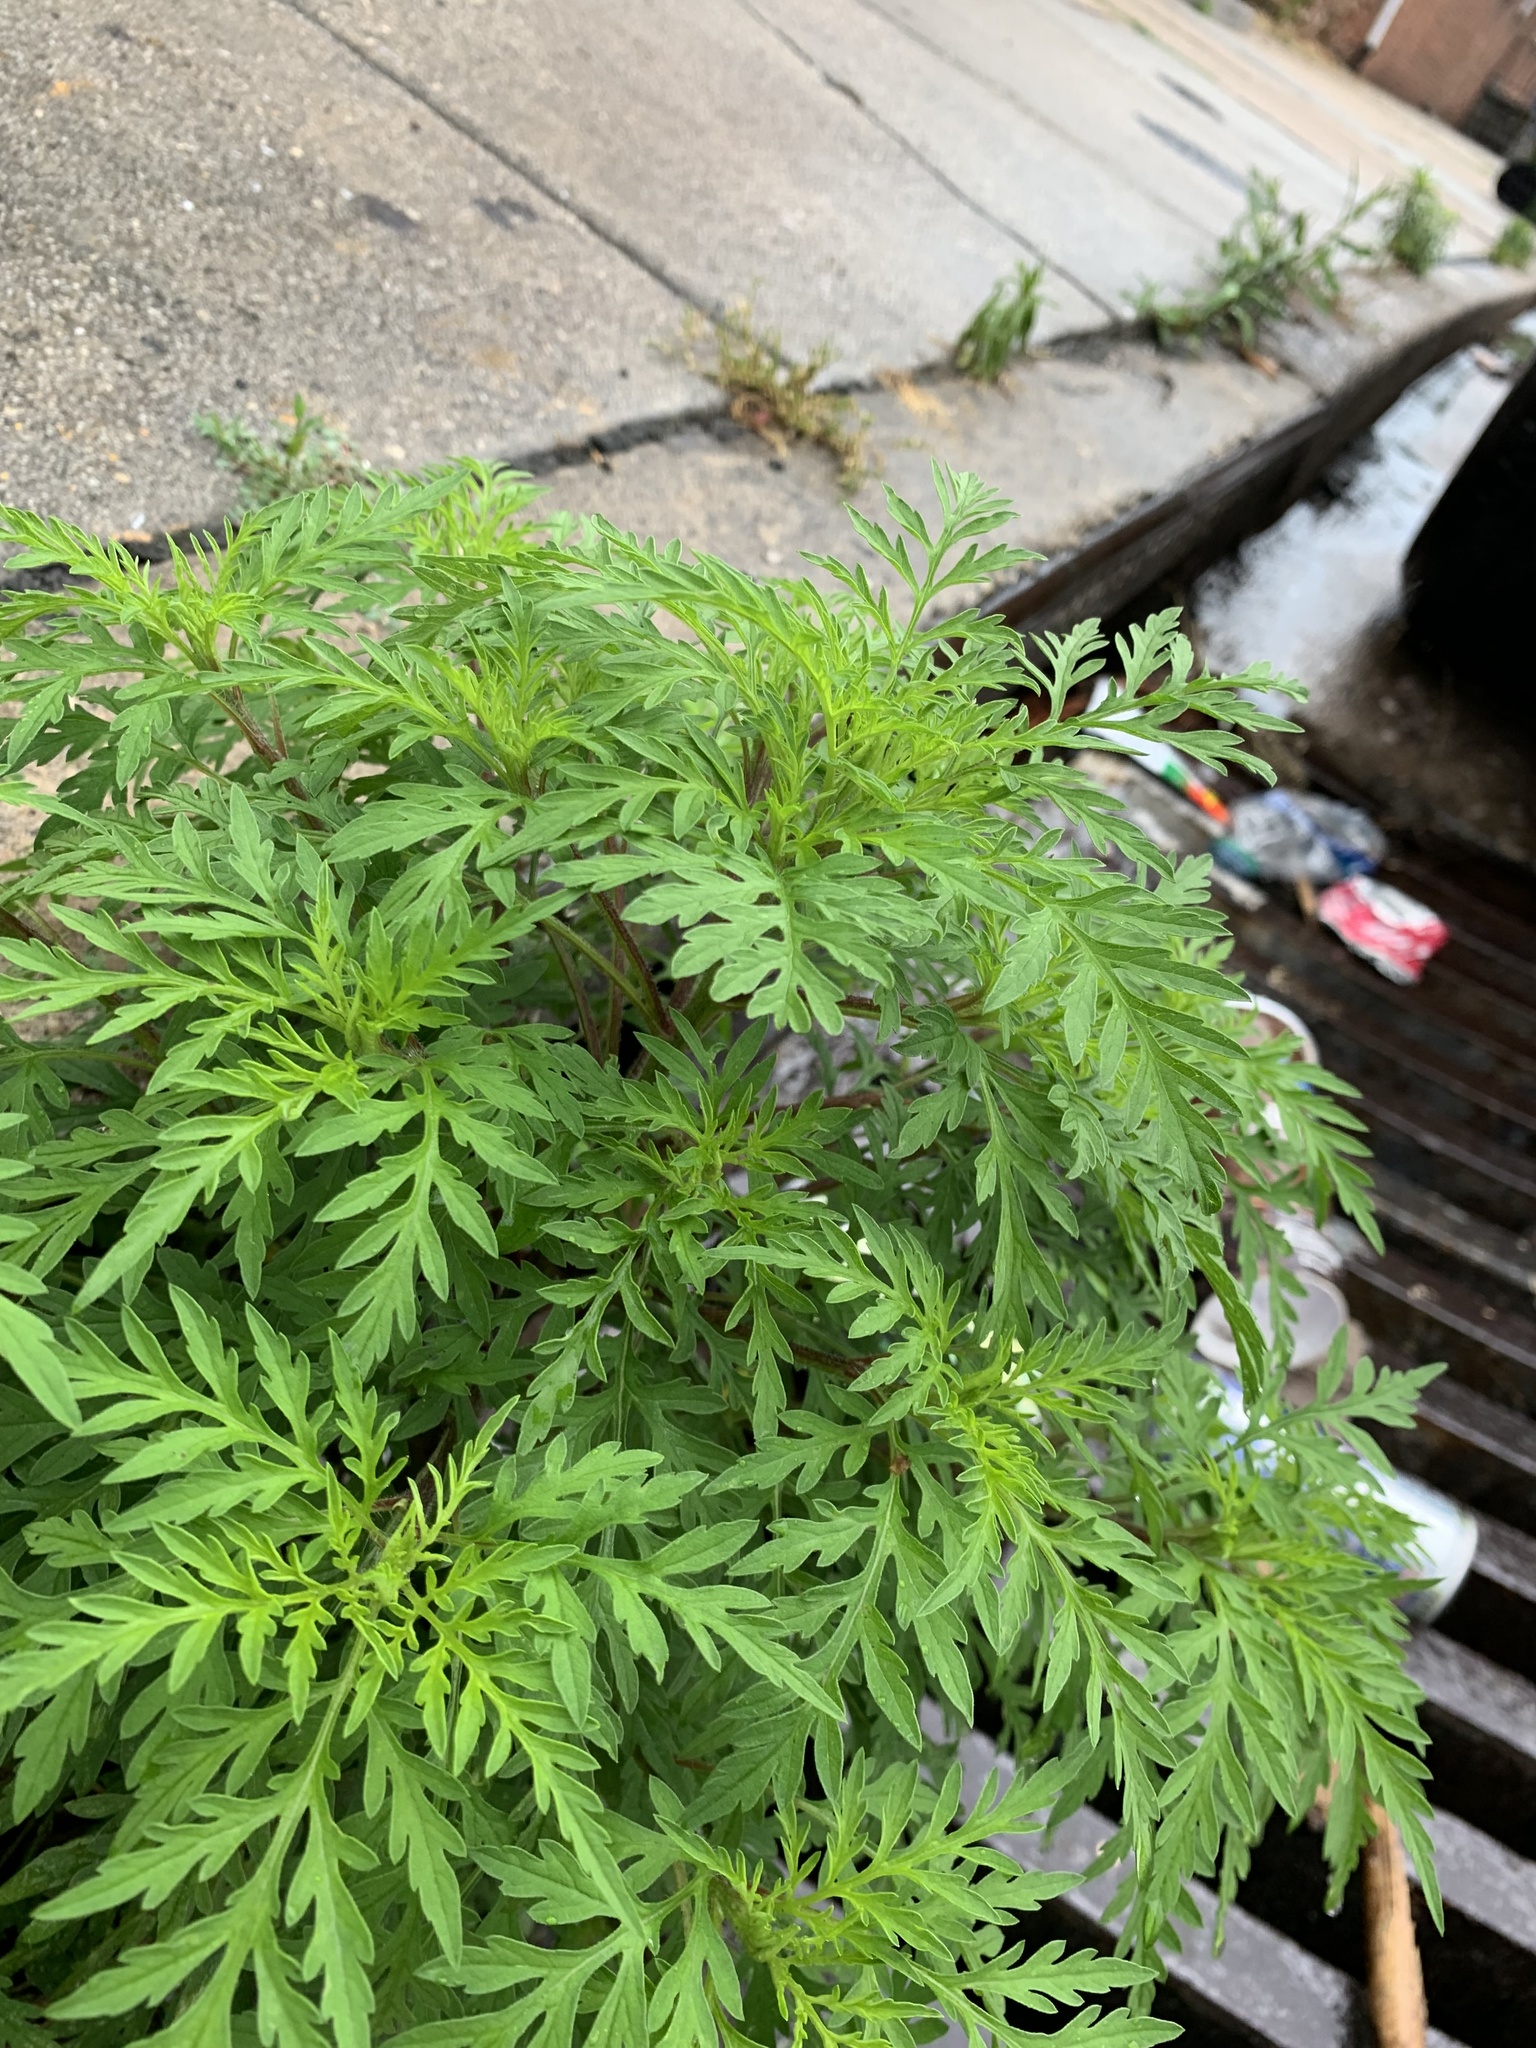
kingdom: Plantae
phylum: Tracheophyta
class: Magnoliopsida
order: Asterales
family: Asteraceae
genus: Ambrosia
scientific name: Ambrosia artemisiifolia
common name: Annual ragweed
